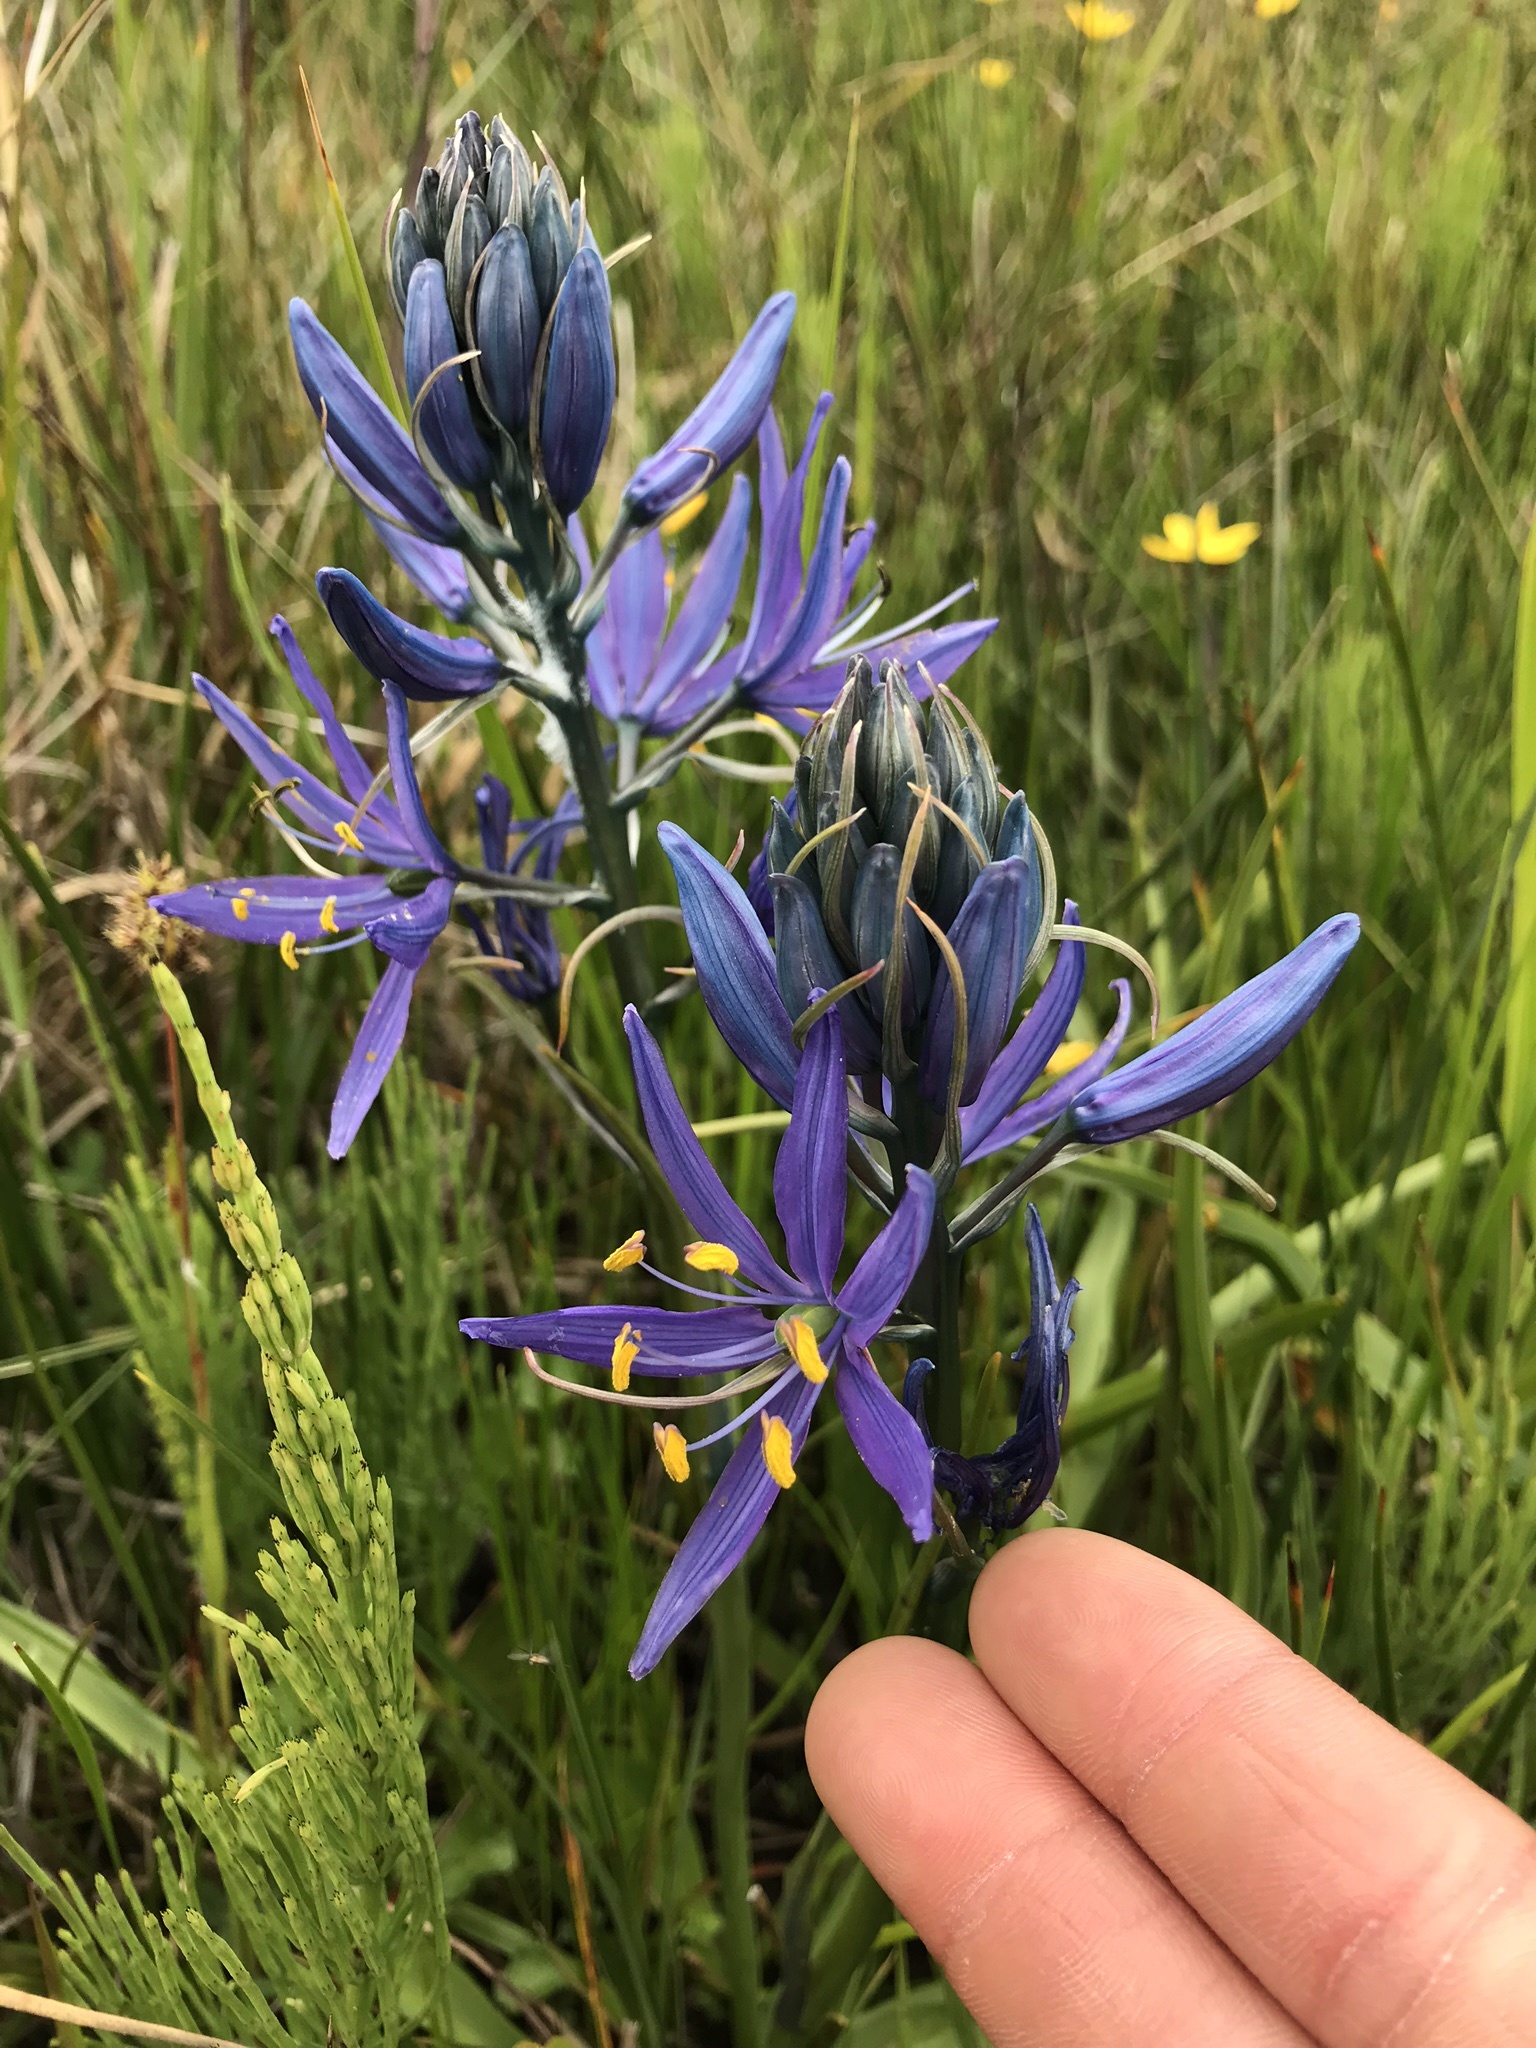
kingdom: Plantae
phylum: Tracheophyta
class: Liliopsida
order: Asparagales
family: Asparagaceae
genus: Camassia
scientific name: Camassia quamash
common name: Common camas
